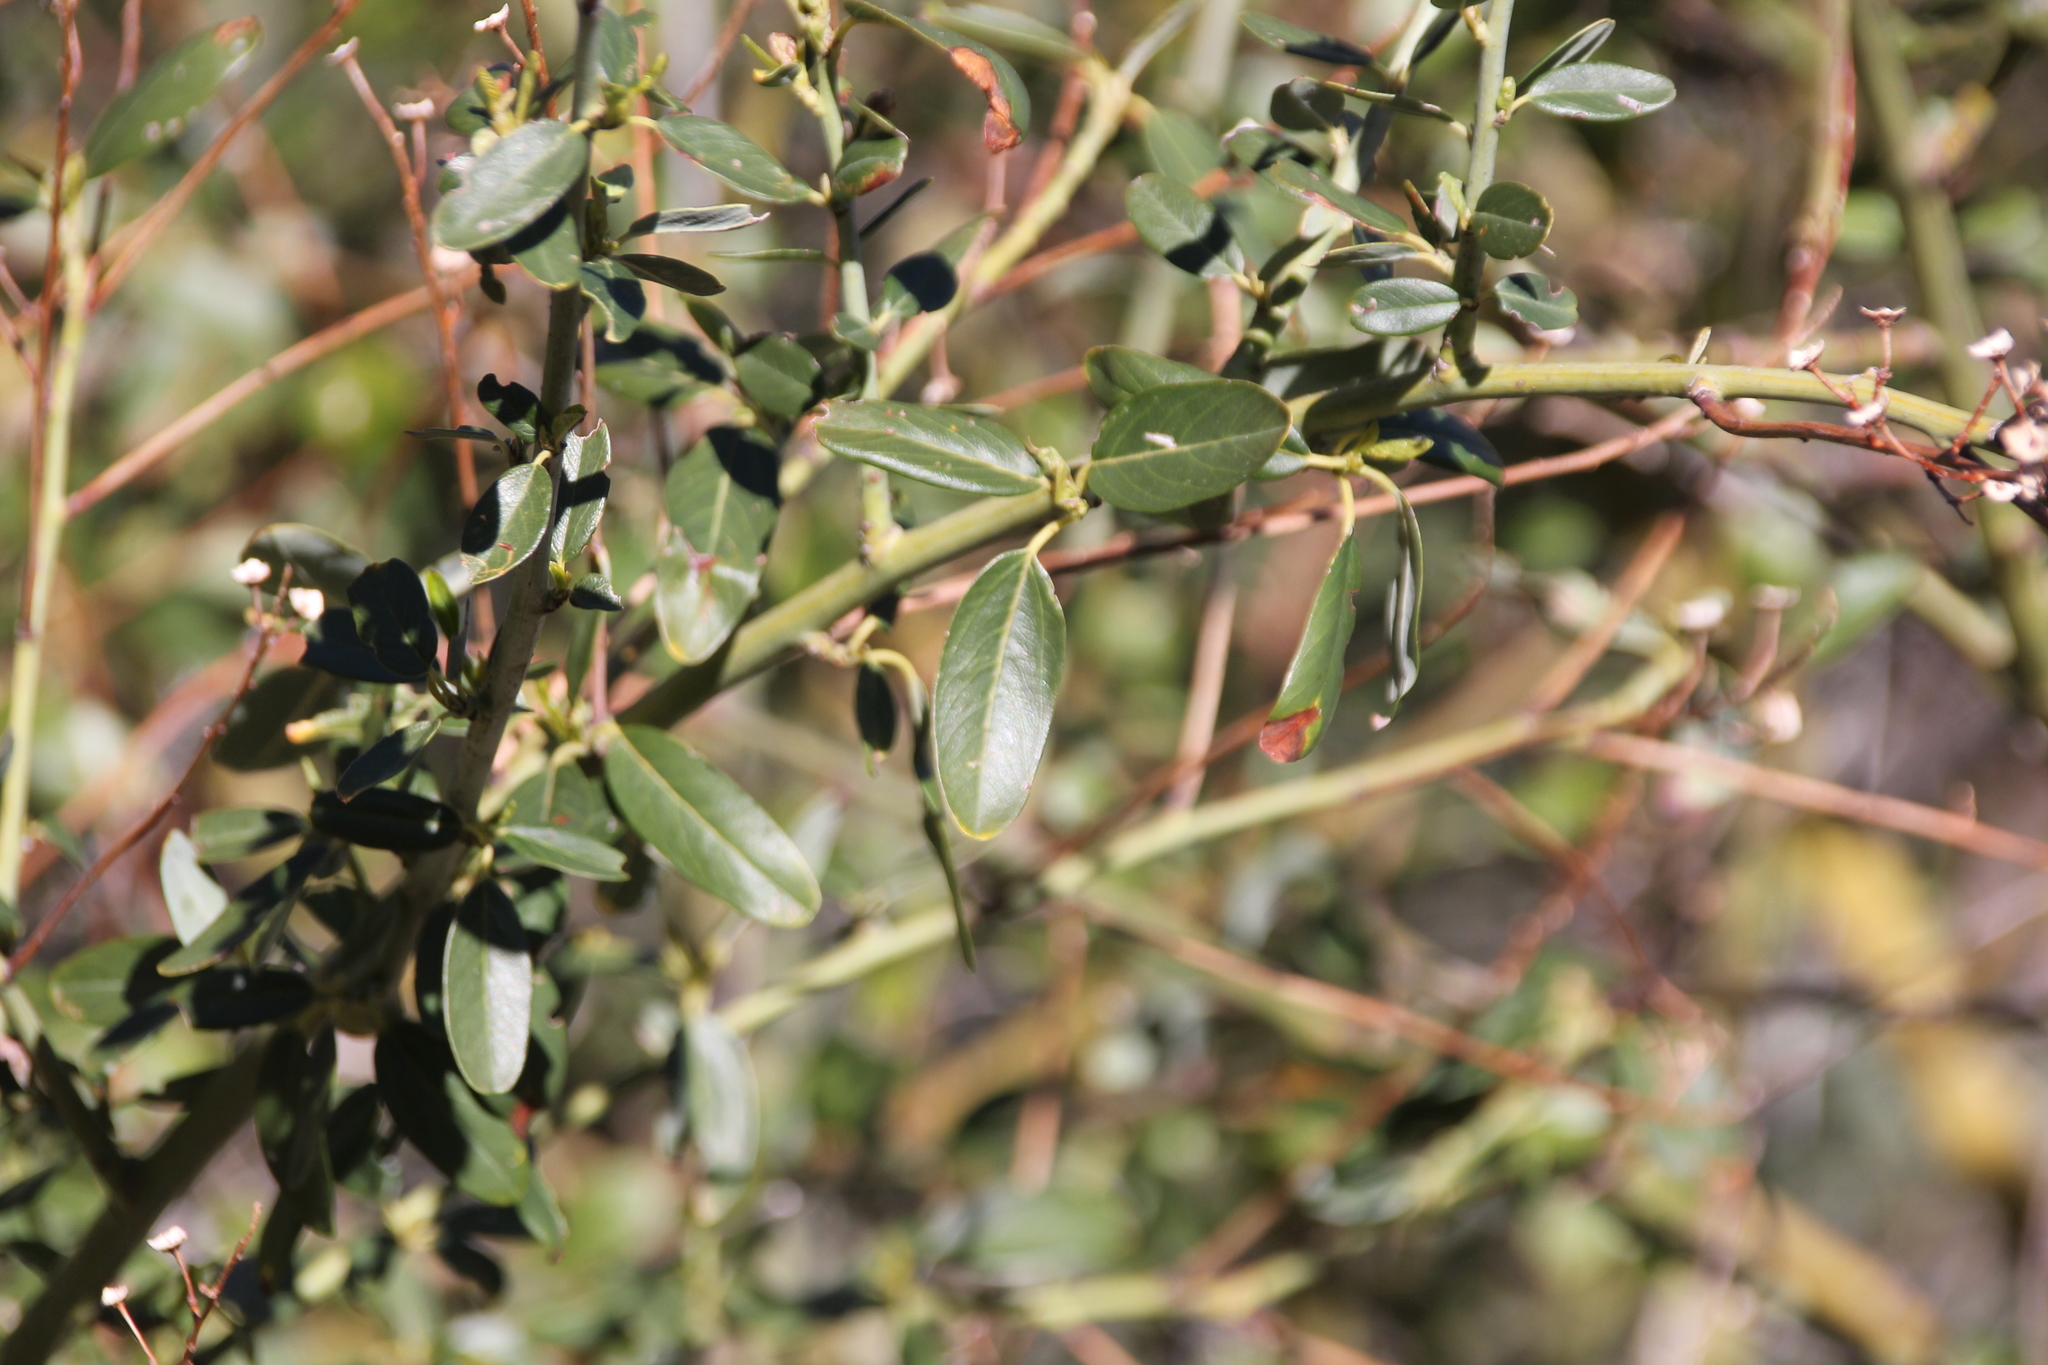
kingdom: Plantae
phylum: Tracheophyta
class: Magnoliopsida
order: Rosales
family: Rhamnaceae
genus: Ceanothus
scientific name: Ceanothus palmeri
